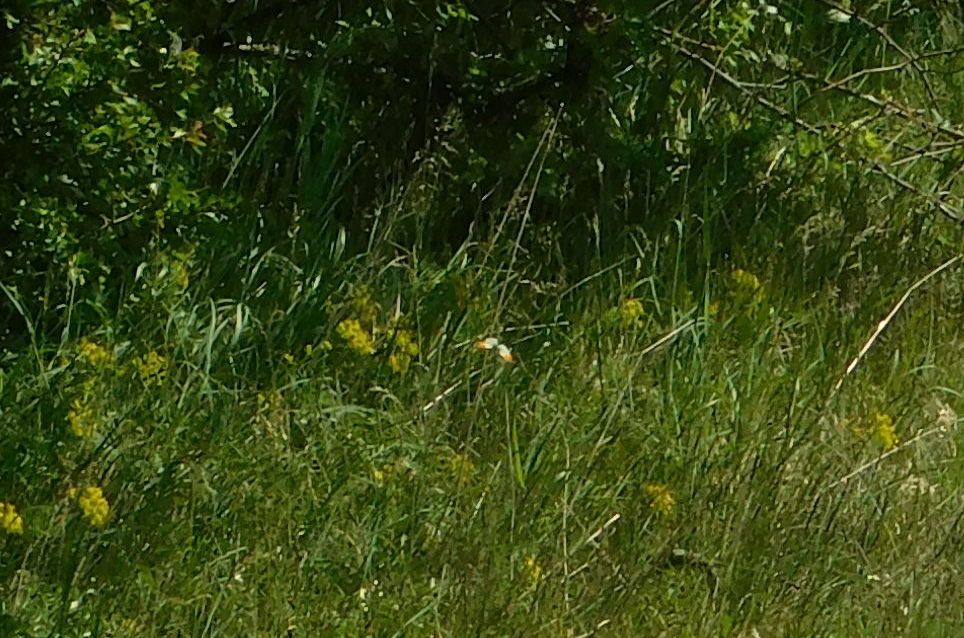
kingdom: Animalia
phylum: Arthropoda
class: Insecta
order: Lepidoptera
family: Pieridae
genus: Anthocharis
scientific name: Anthocharis cardamines
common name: Orange-tip
